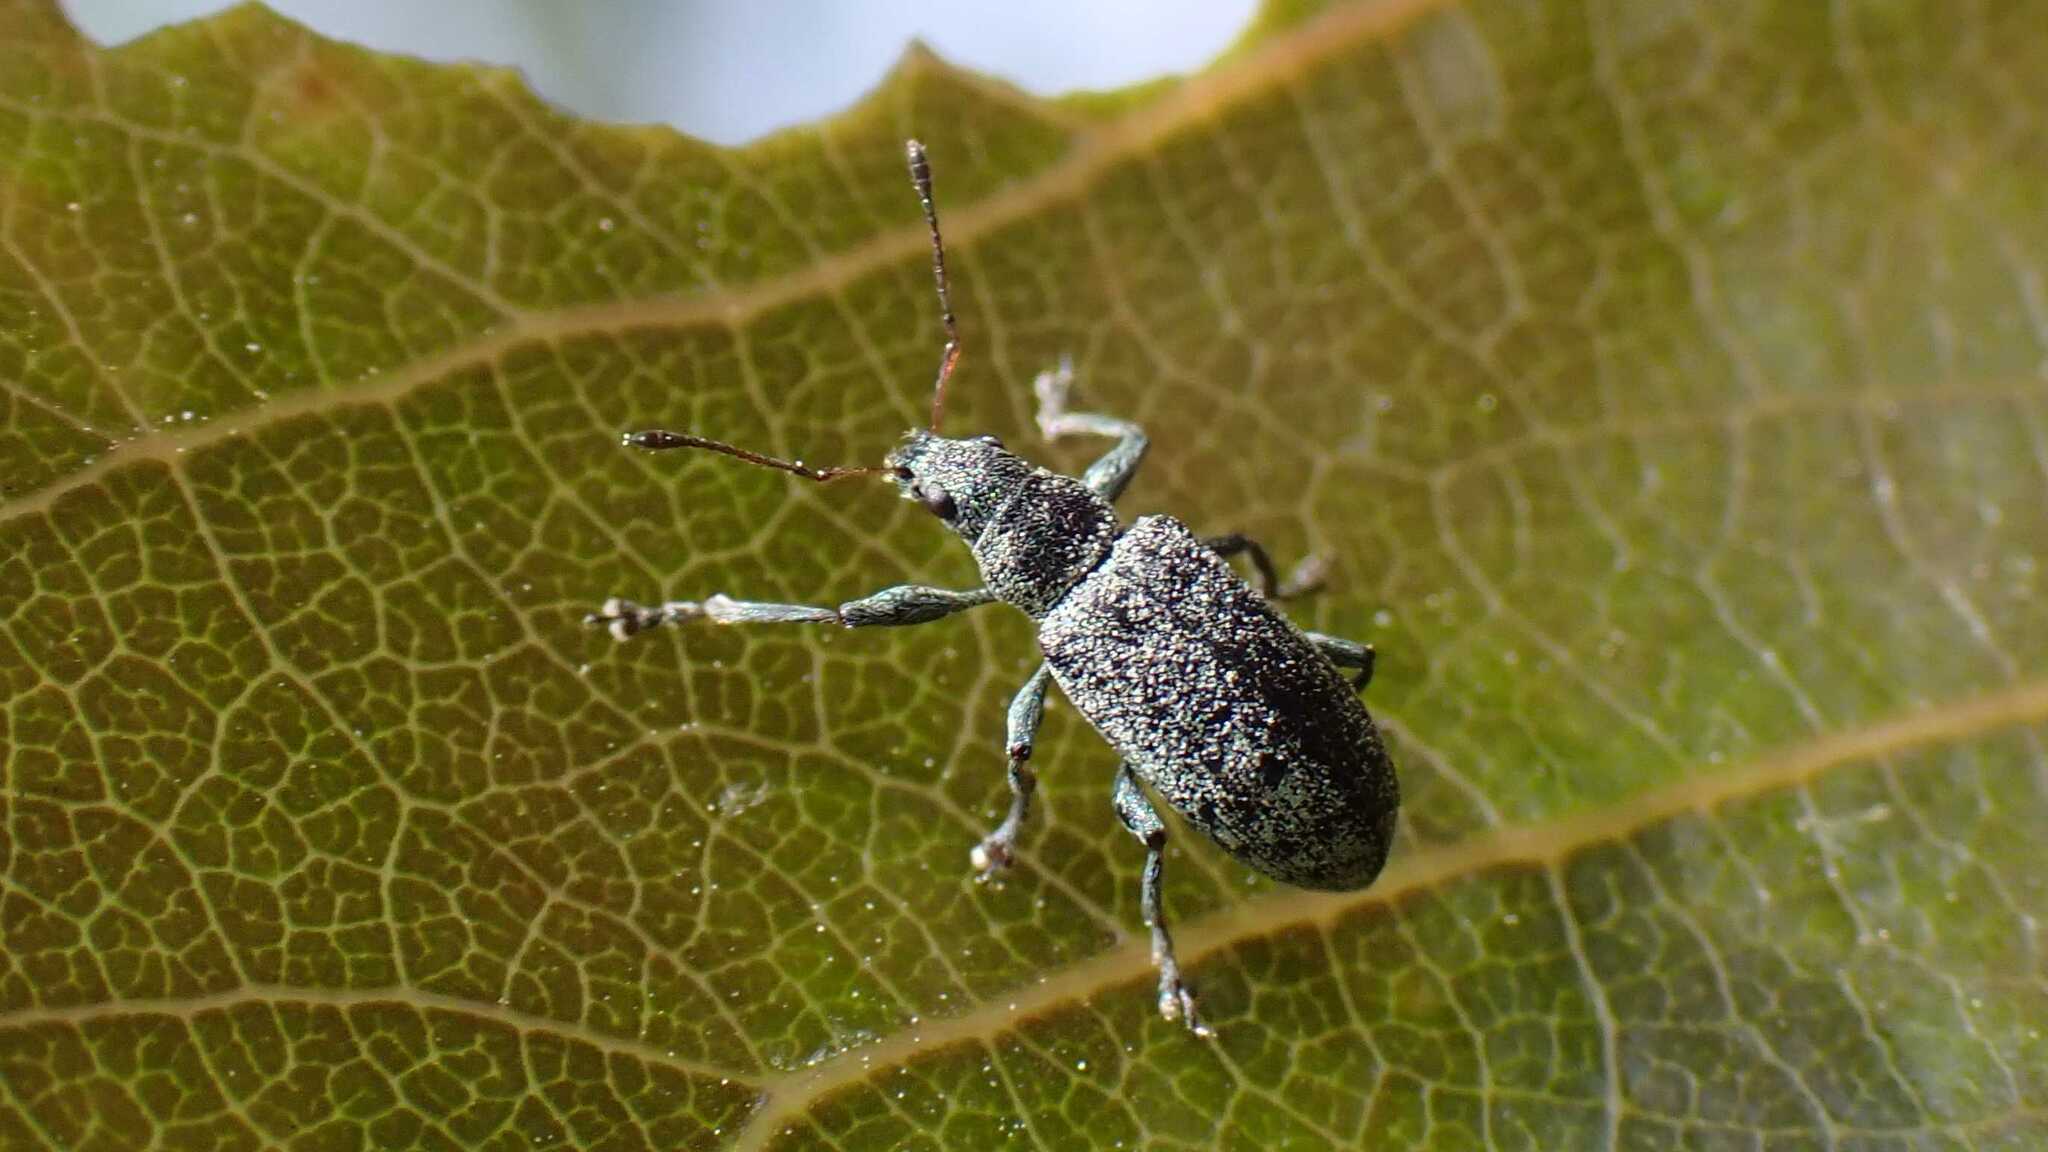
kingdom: Animalia
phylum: Arthropoda
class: Insecta
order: Coleoptera
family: Curculionidae
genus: Polydrusus
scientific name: Polydrusus cervinus
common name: Weevil
